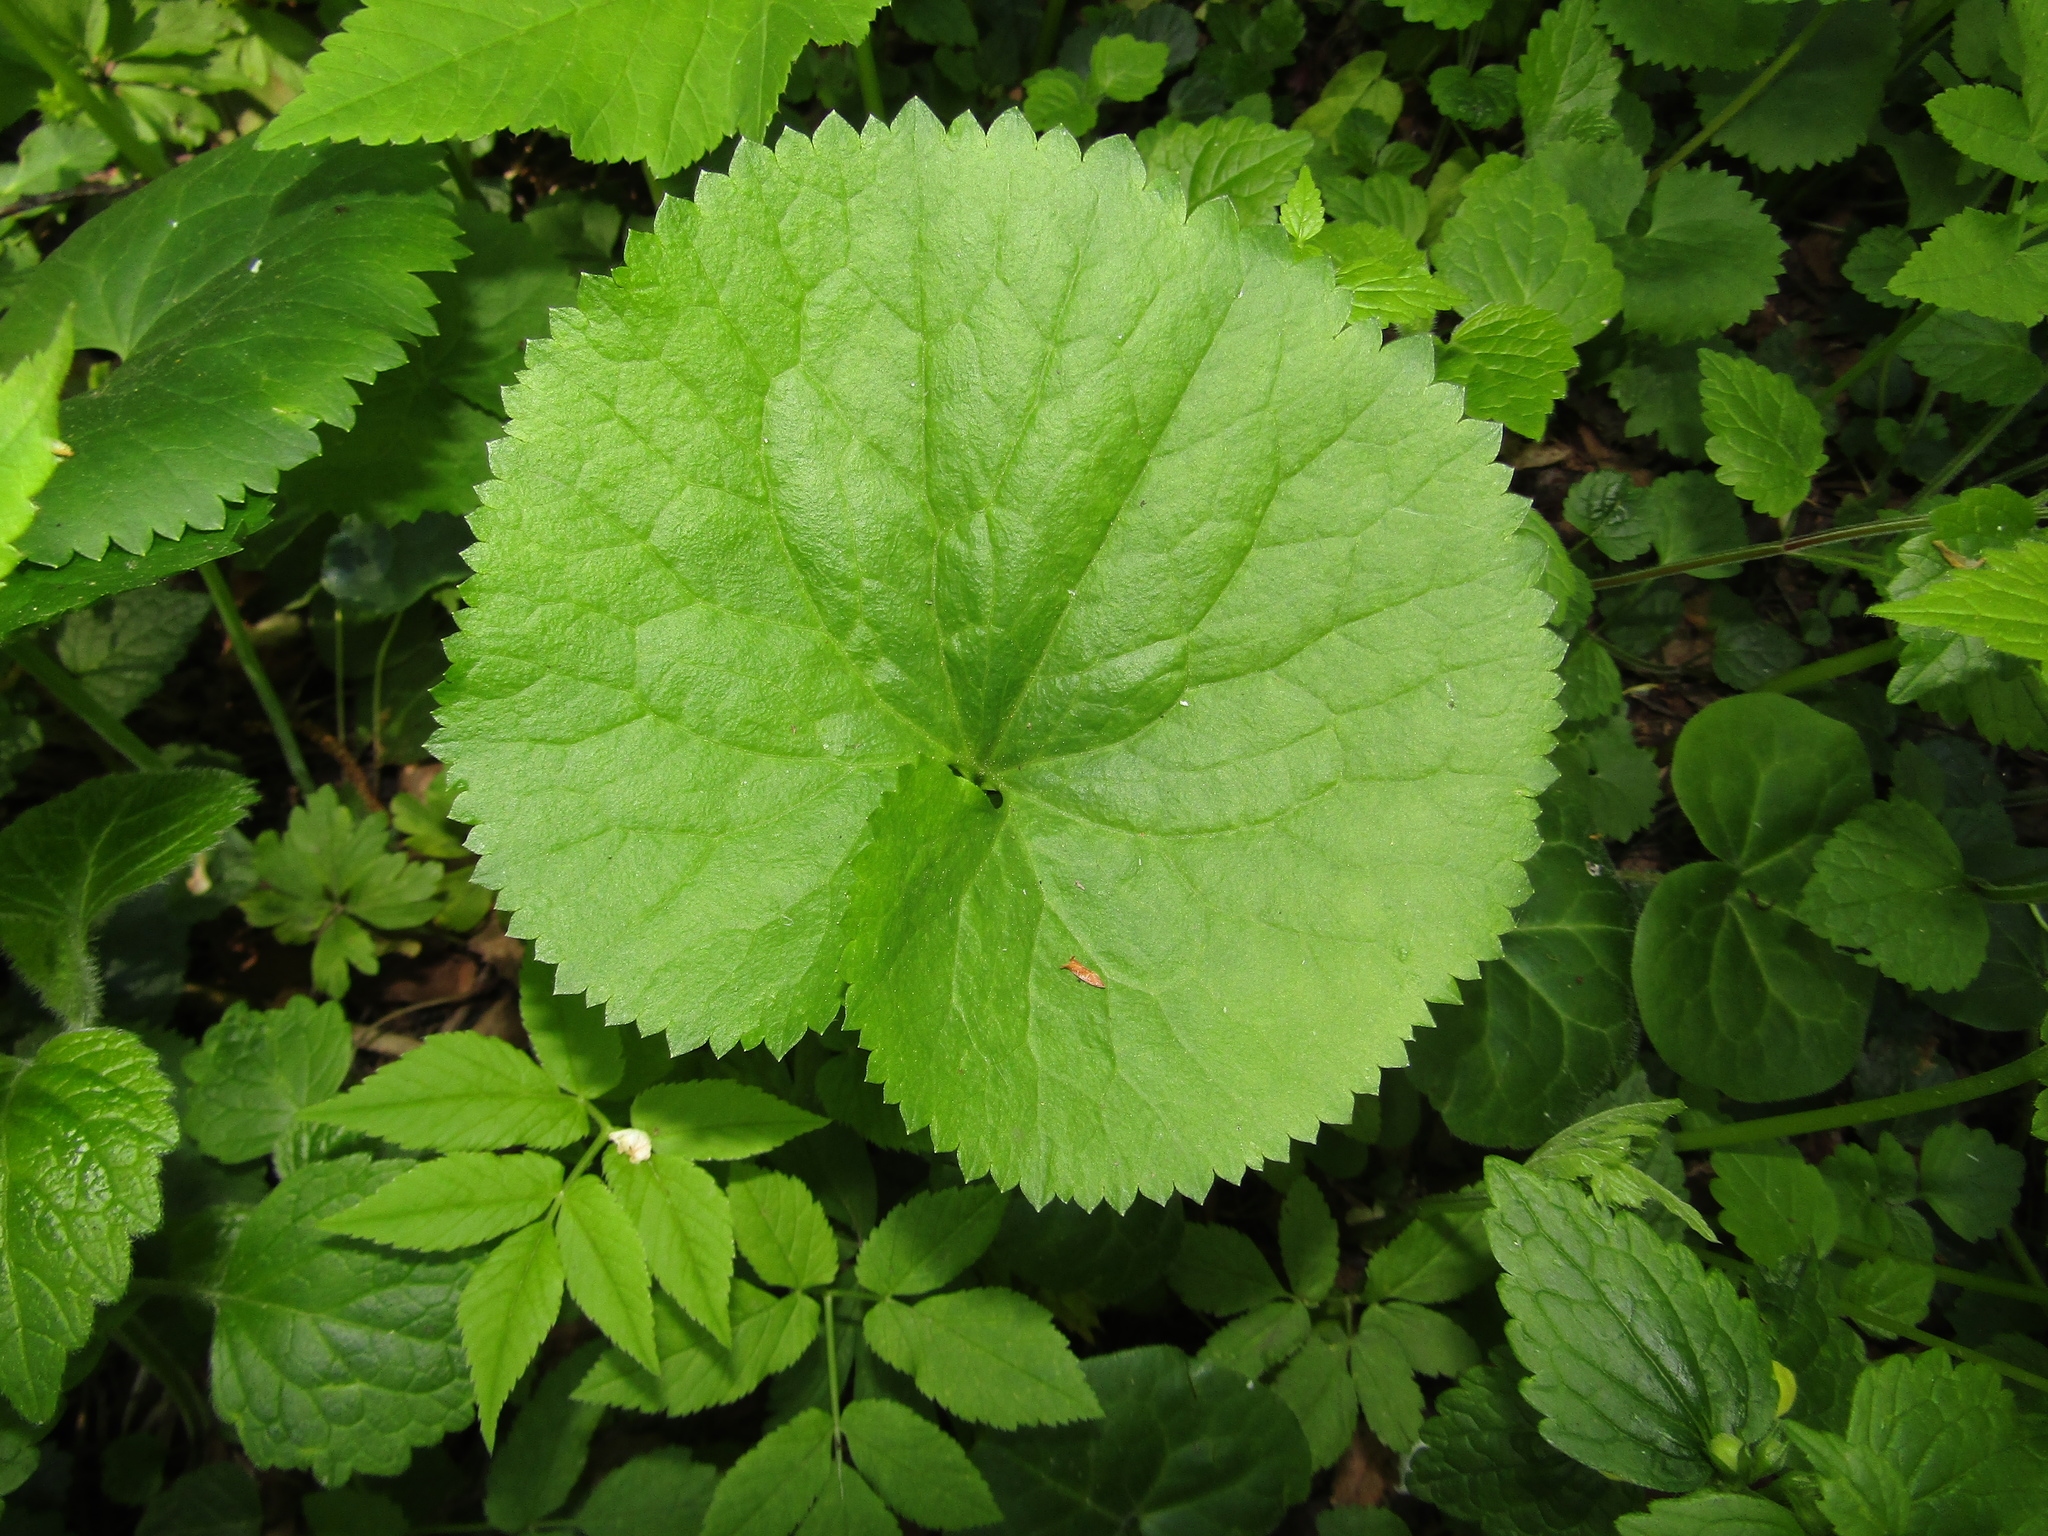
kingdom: Plantae
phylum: Tracheophyta
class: Magnoliopsida
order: Ranunculales
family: Ranunculaceae
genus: Ranunculus
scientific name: Ranunculus cassubicus
